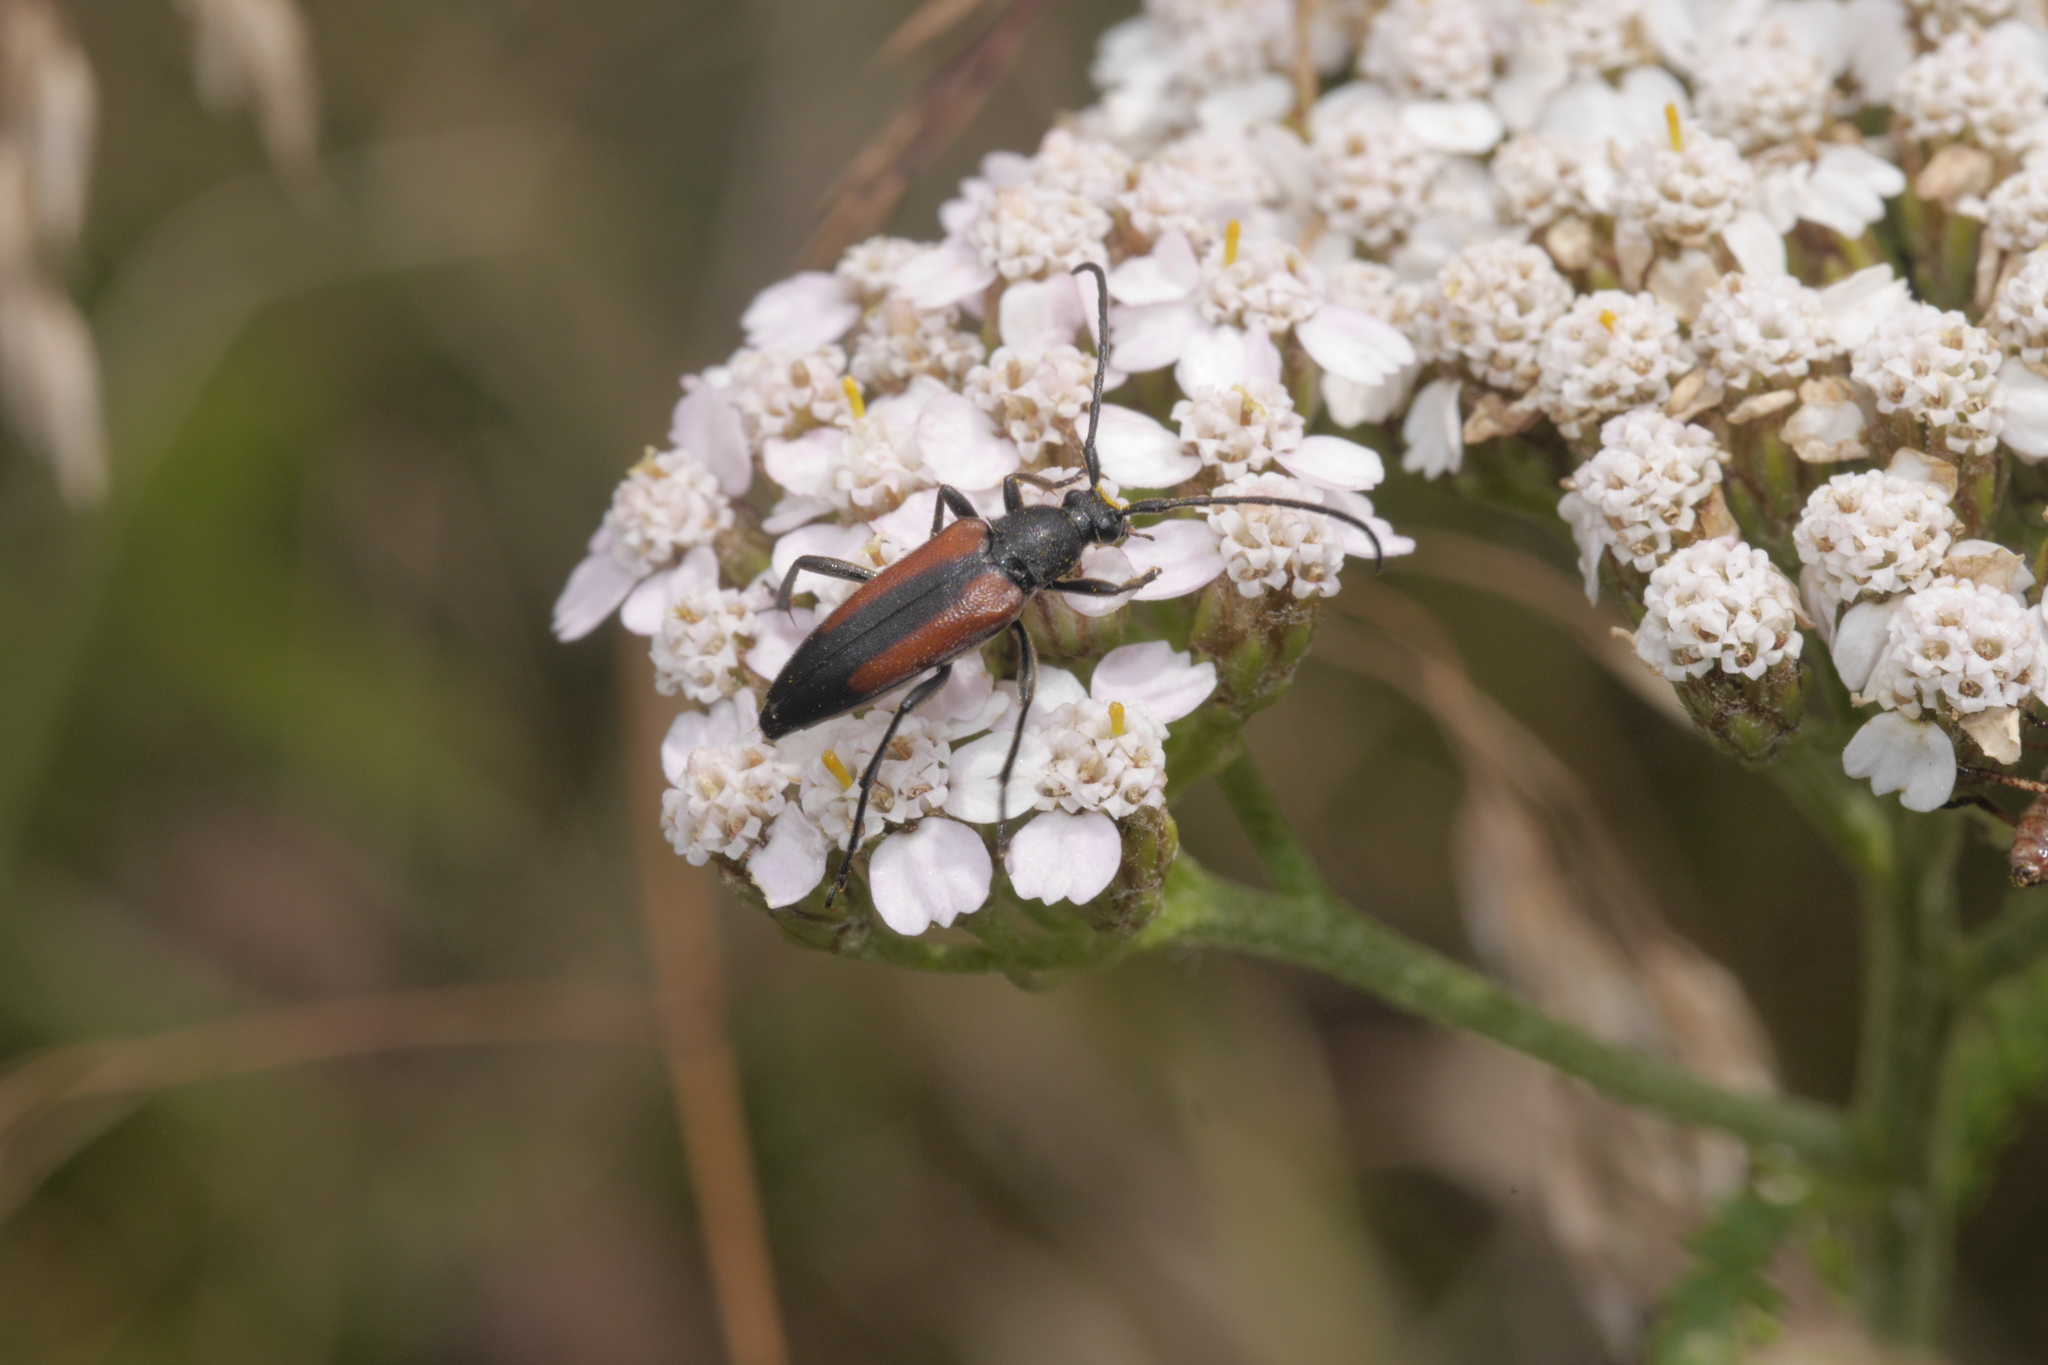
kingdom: Animalia
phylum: Arthropoda
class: Insecta
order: Coleoptera
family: Cerambycidae
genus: Stenurella
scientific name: Stenurella melanura
